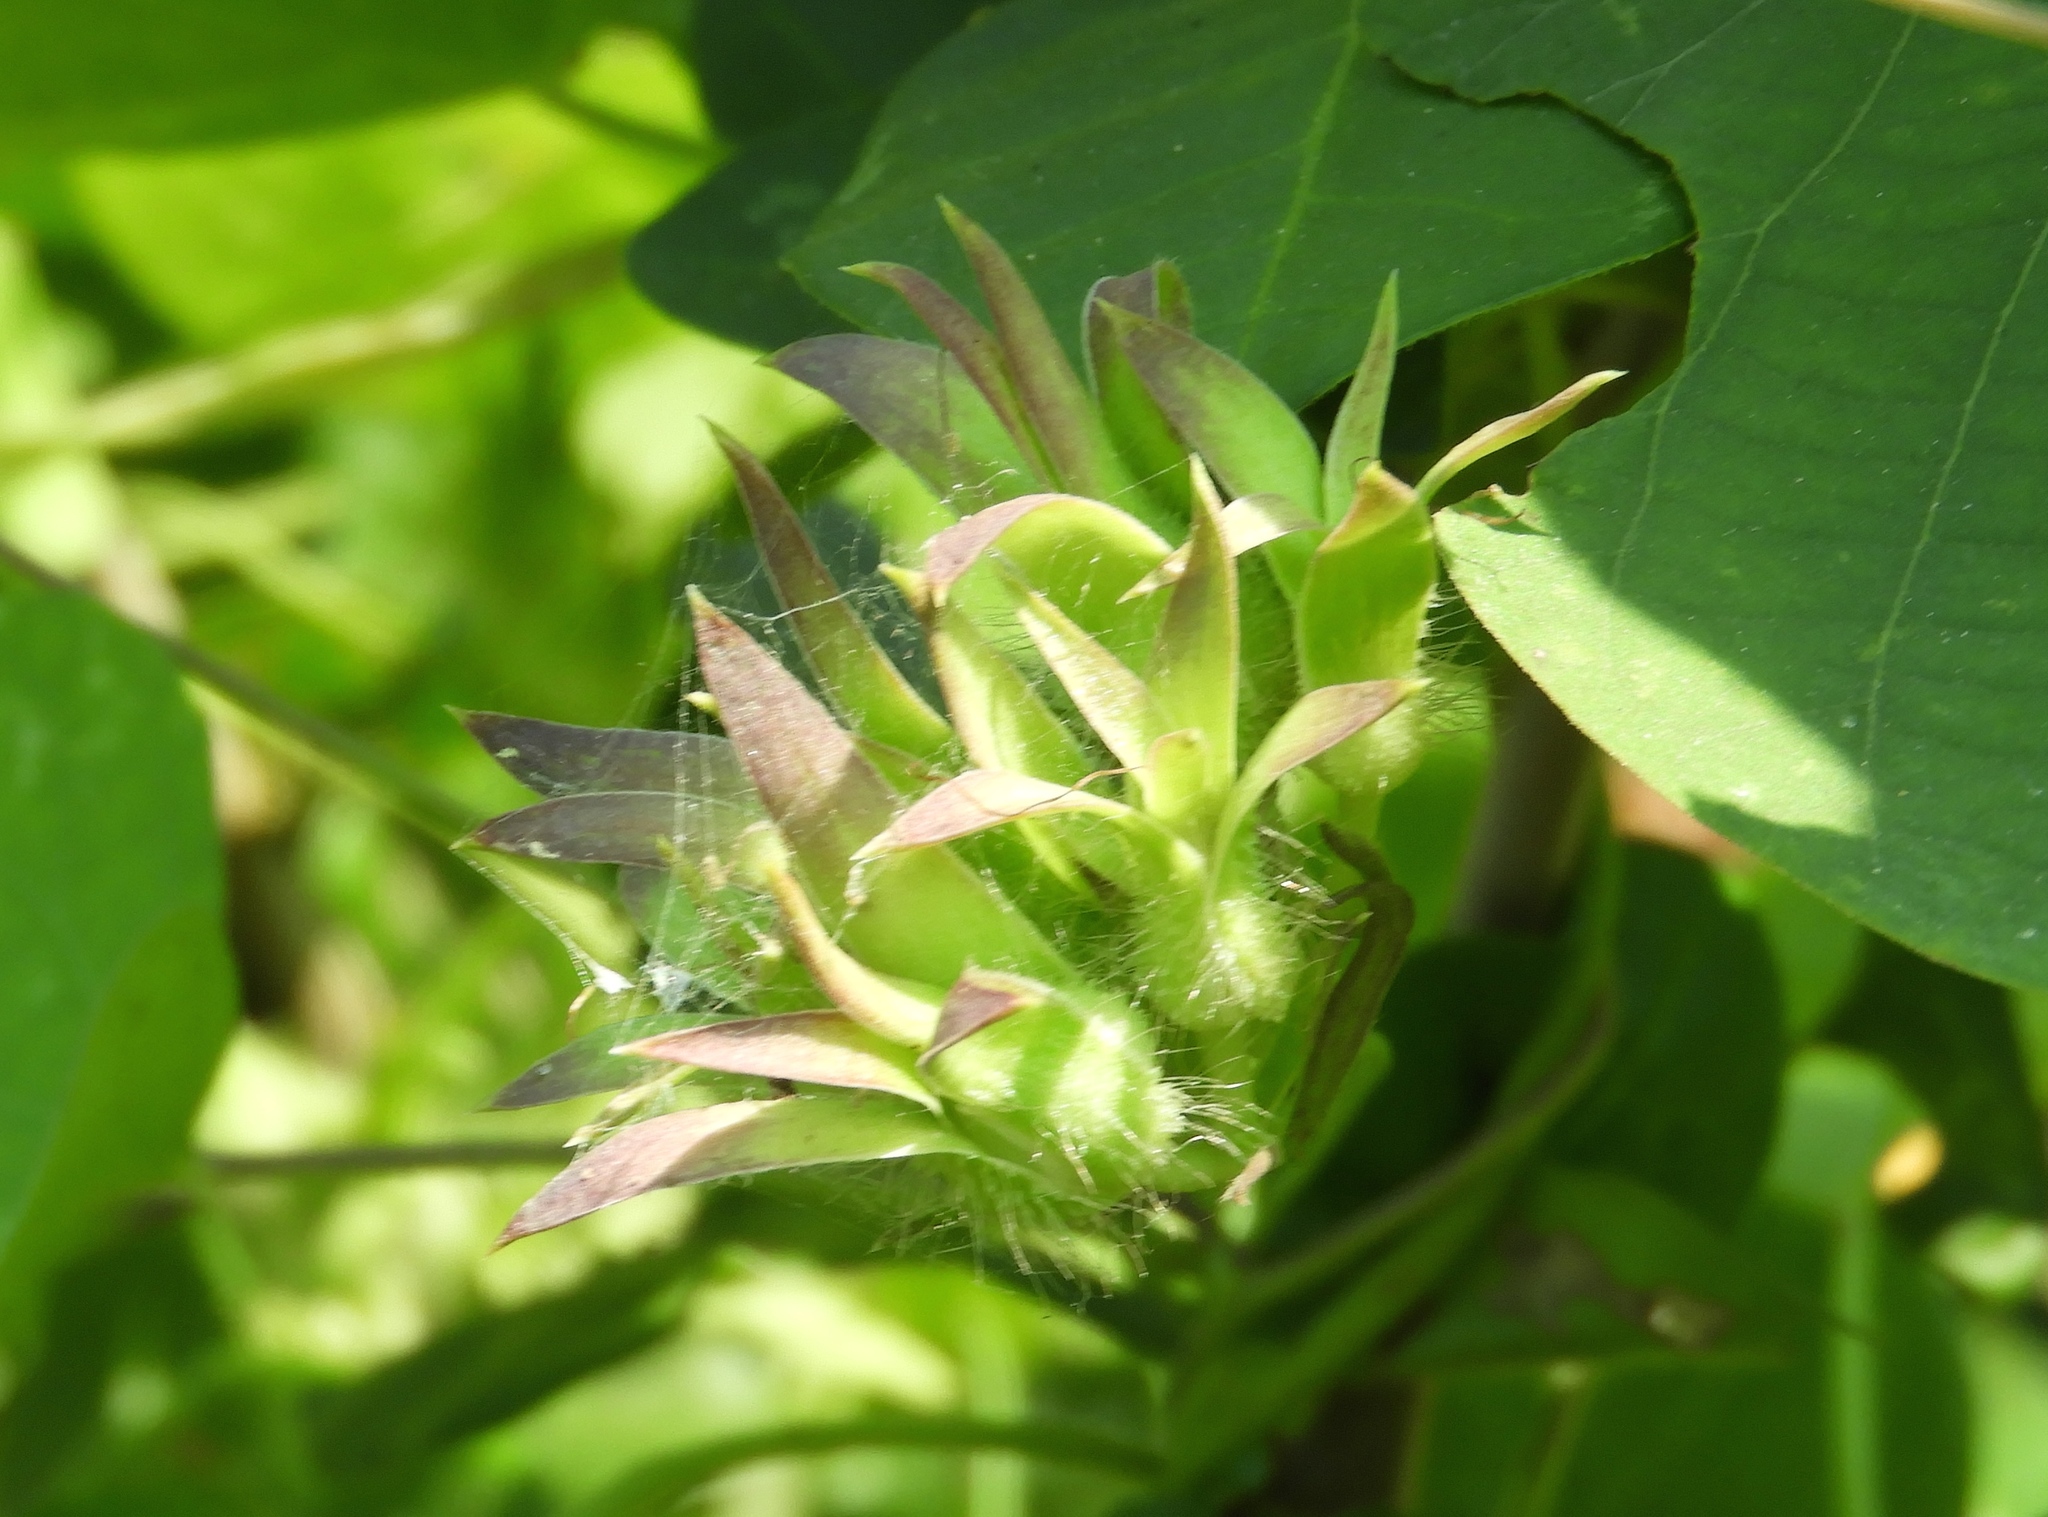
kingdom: Plantae
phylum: Tracheophyta
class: Magnoliopsida
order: Solanales
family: Convolvulaceae
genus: Ipomoea
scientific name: Ipomoea meyeri
